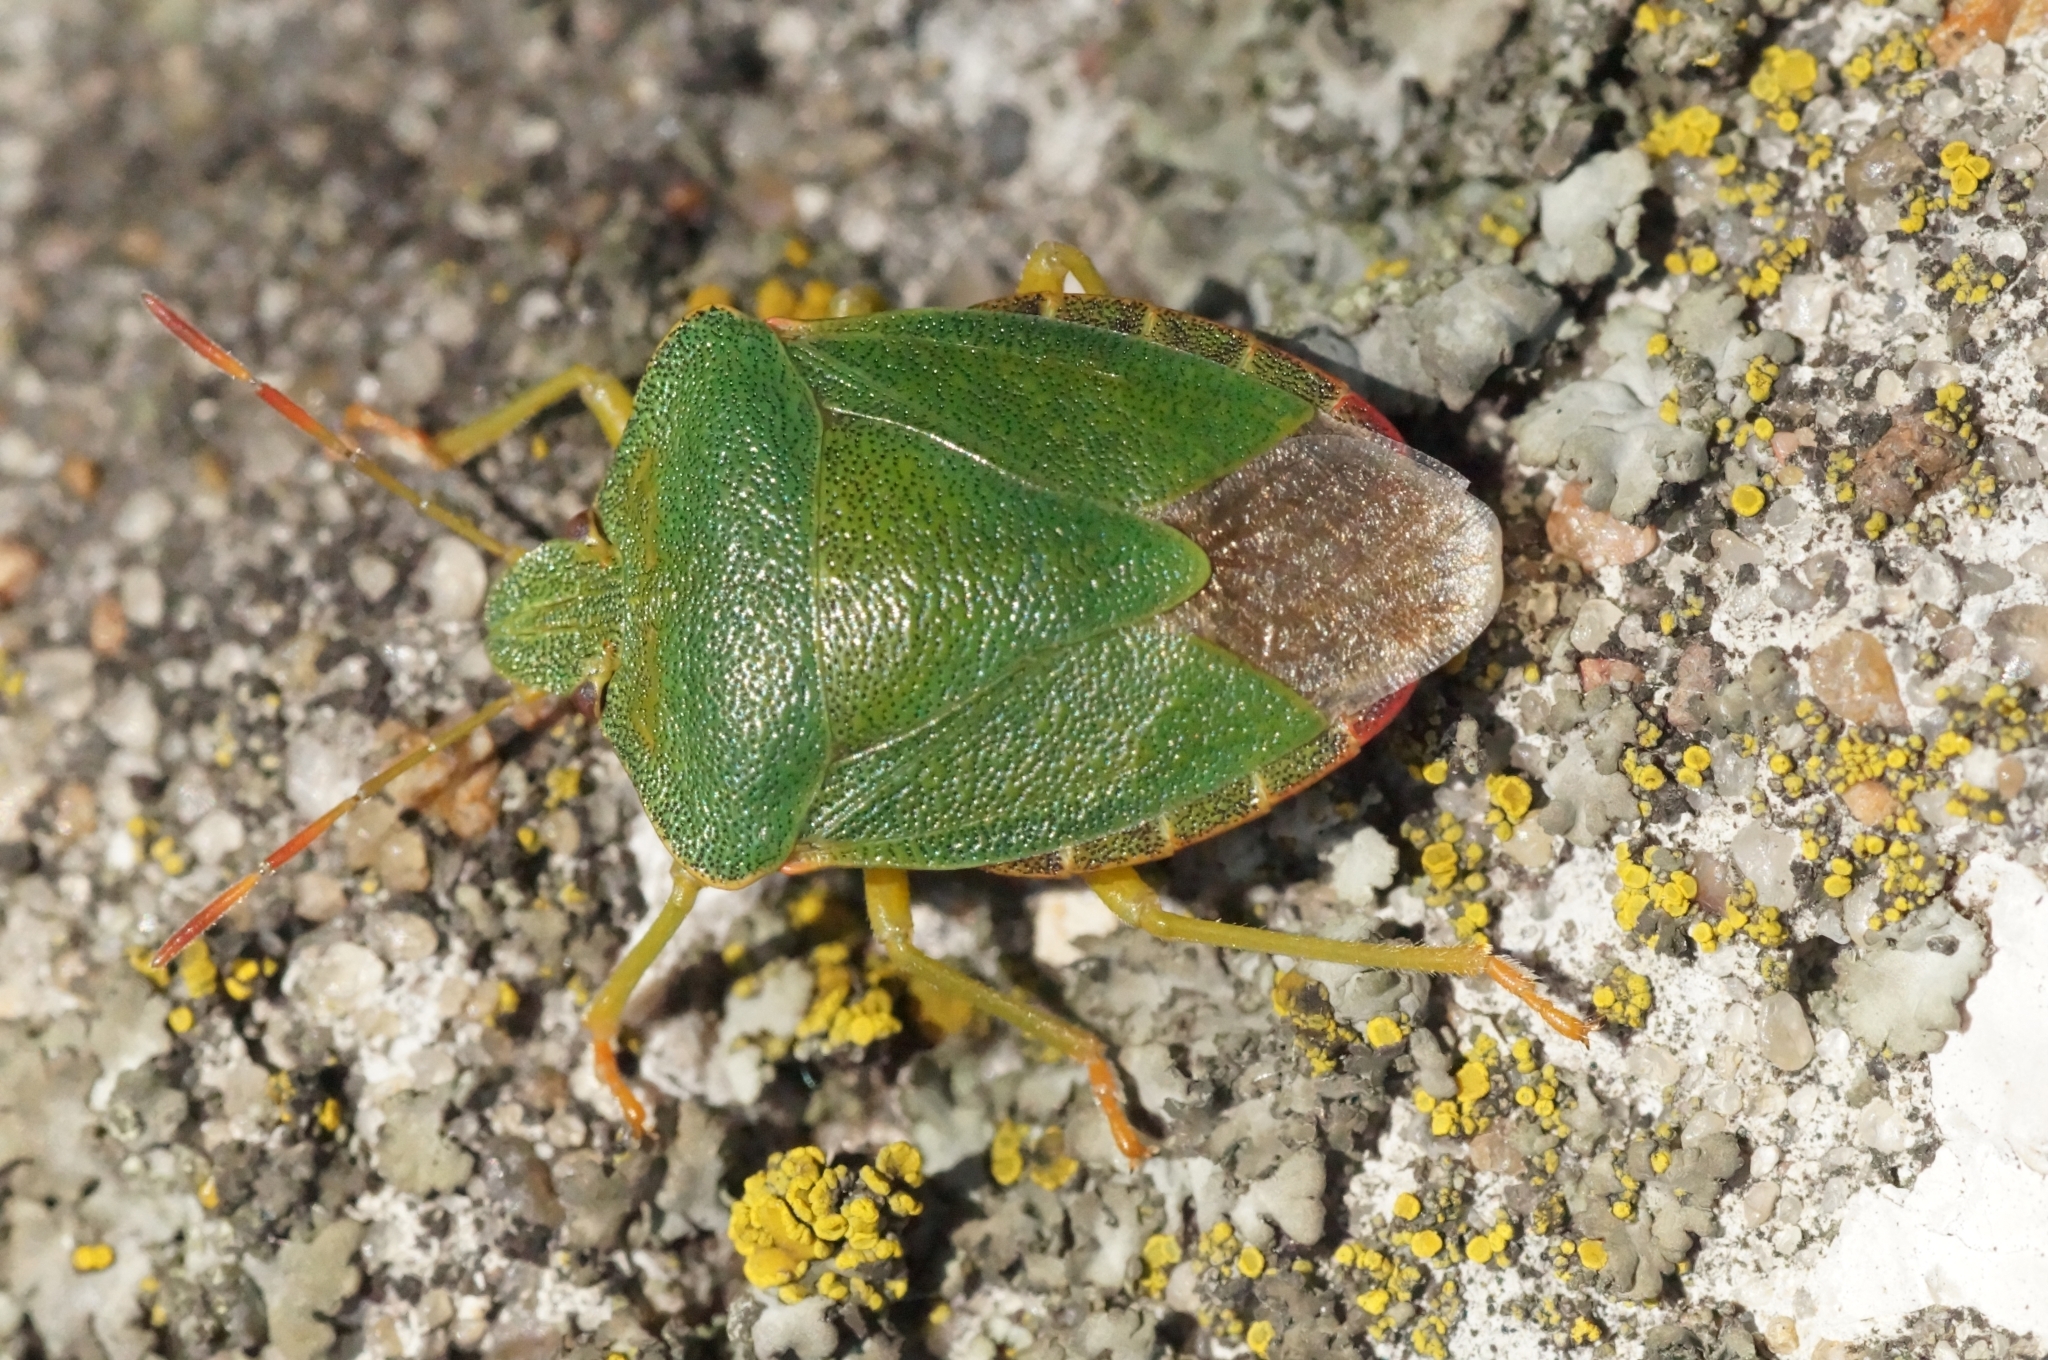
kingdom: Animalia
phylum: Arthropoda
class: Insecta
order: Hemiptera
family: Pentatomidae
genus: Palomena
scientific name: Palomena prasina
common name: Green shieldbug
